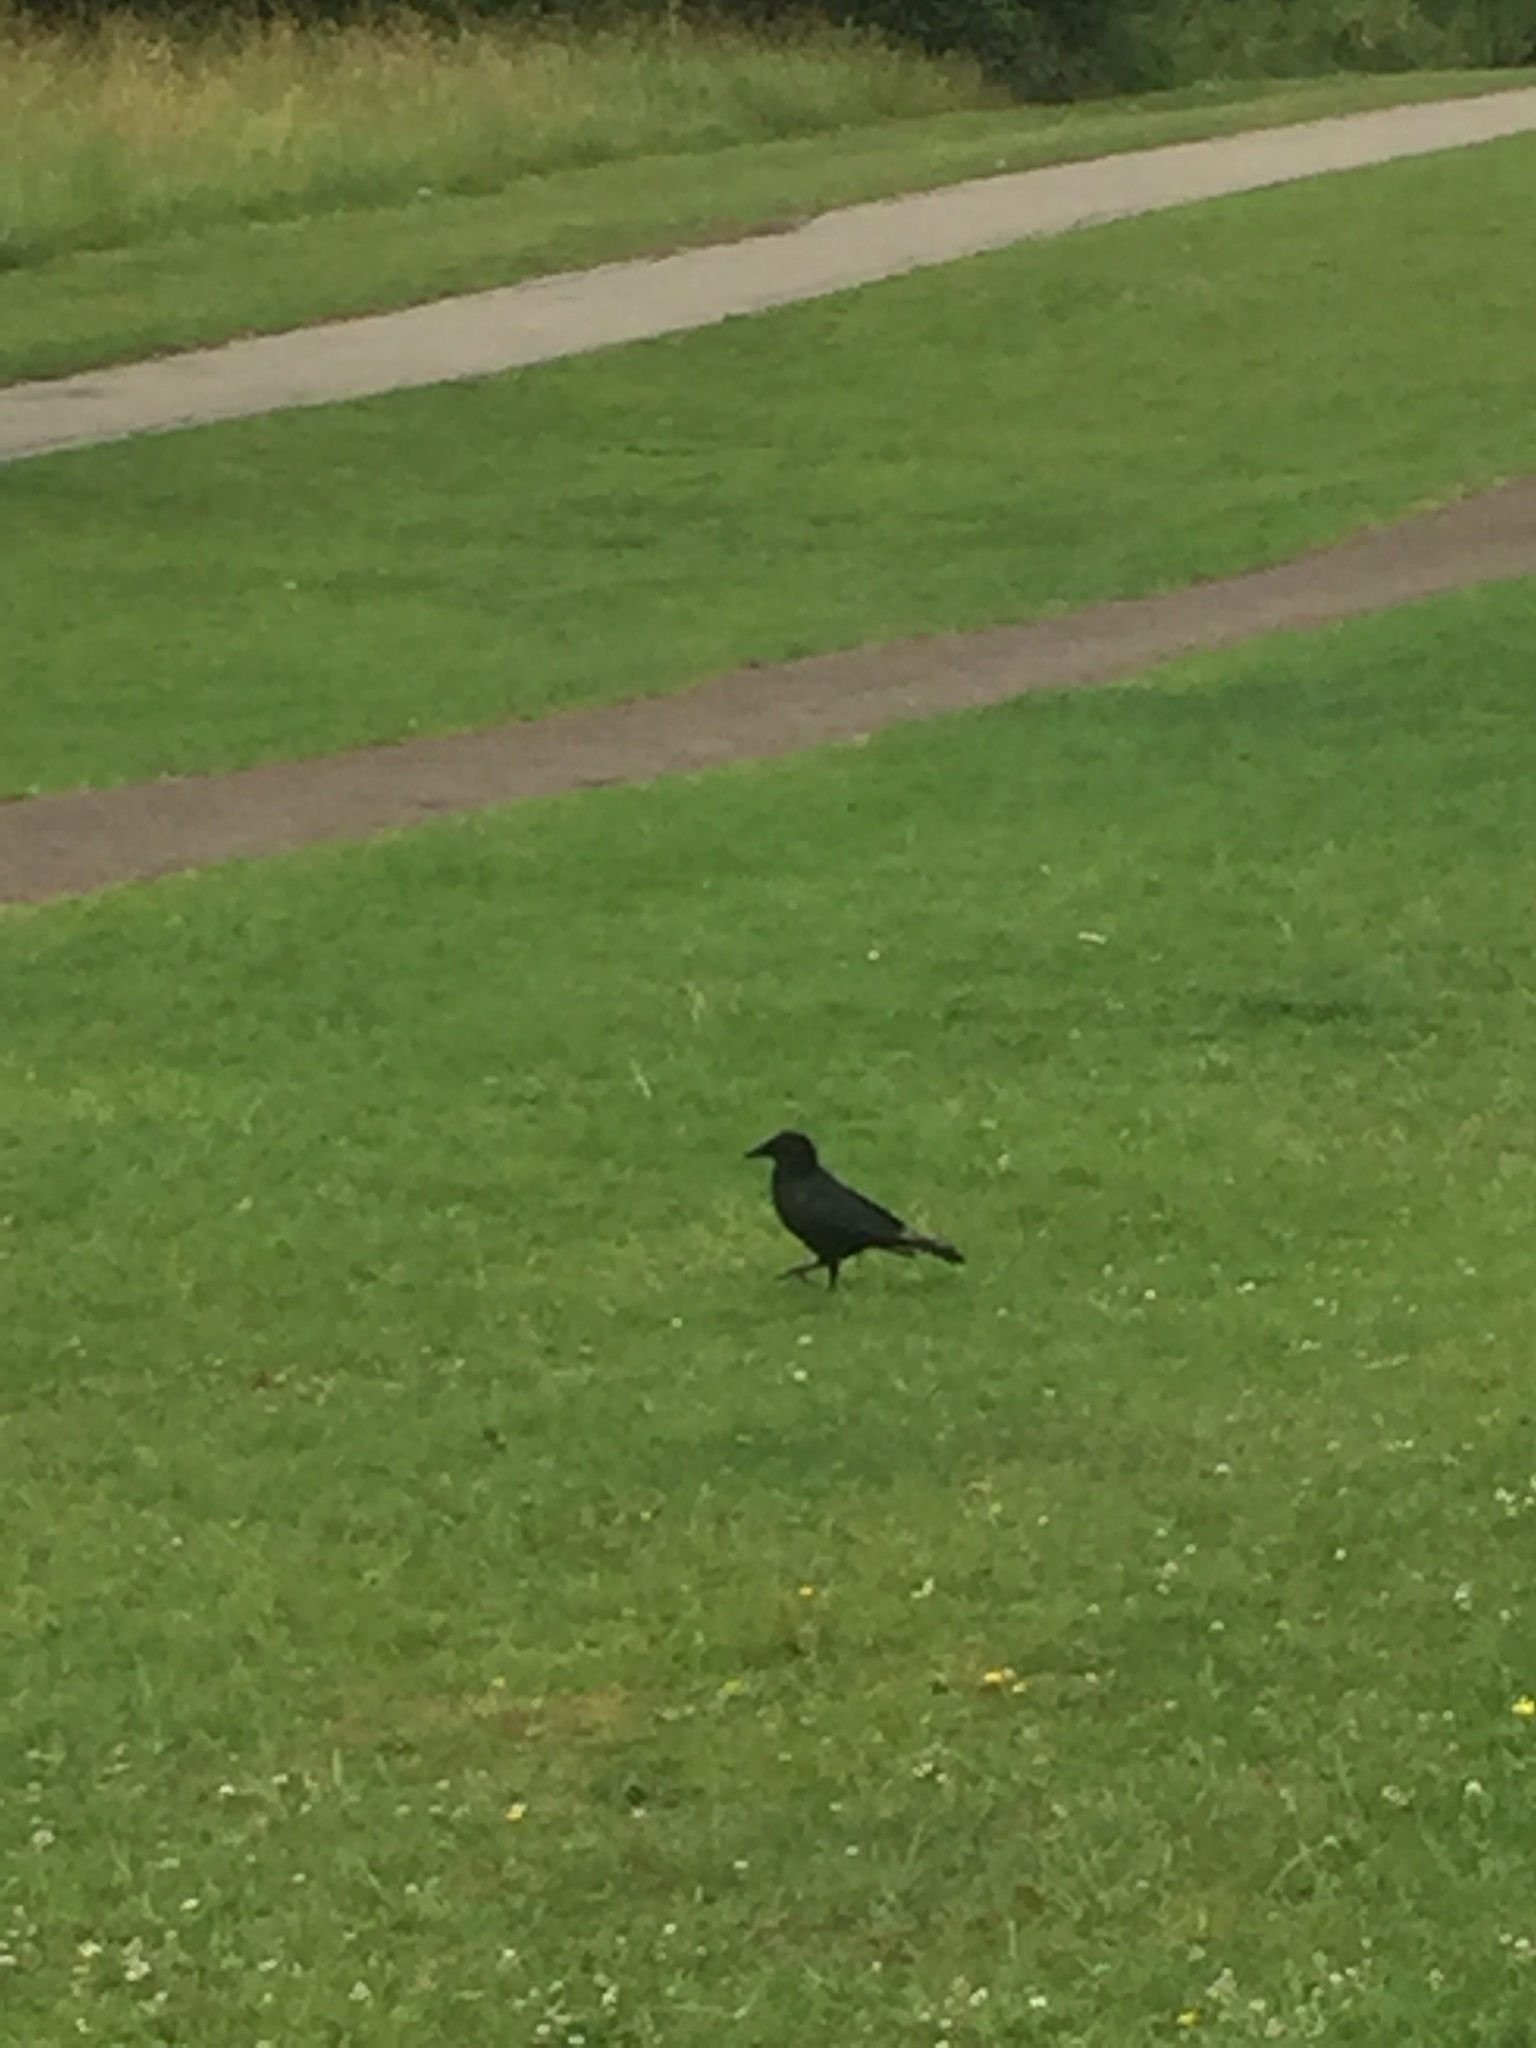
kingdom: Animalia
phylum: Chordata
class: Aves
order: Passeriformes
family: Corvidae
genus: Corvus
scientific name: Corvus corone
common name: Carrion crow
